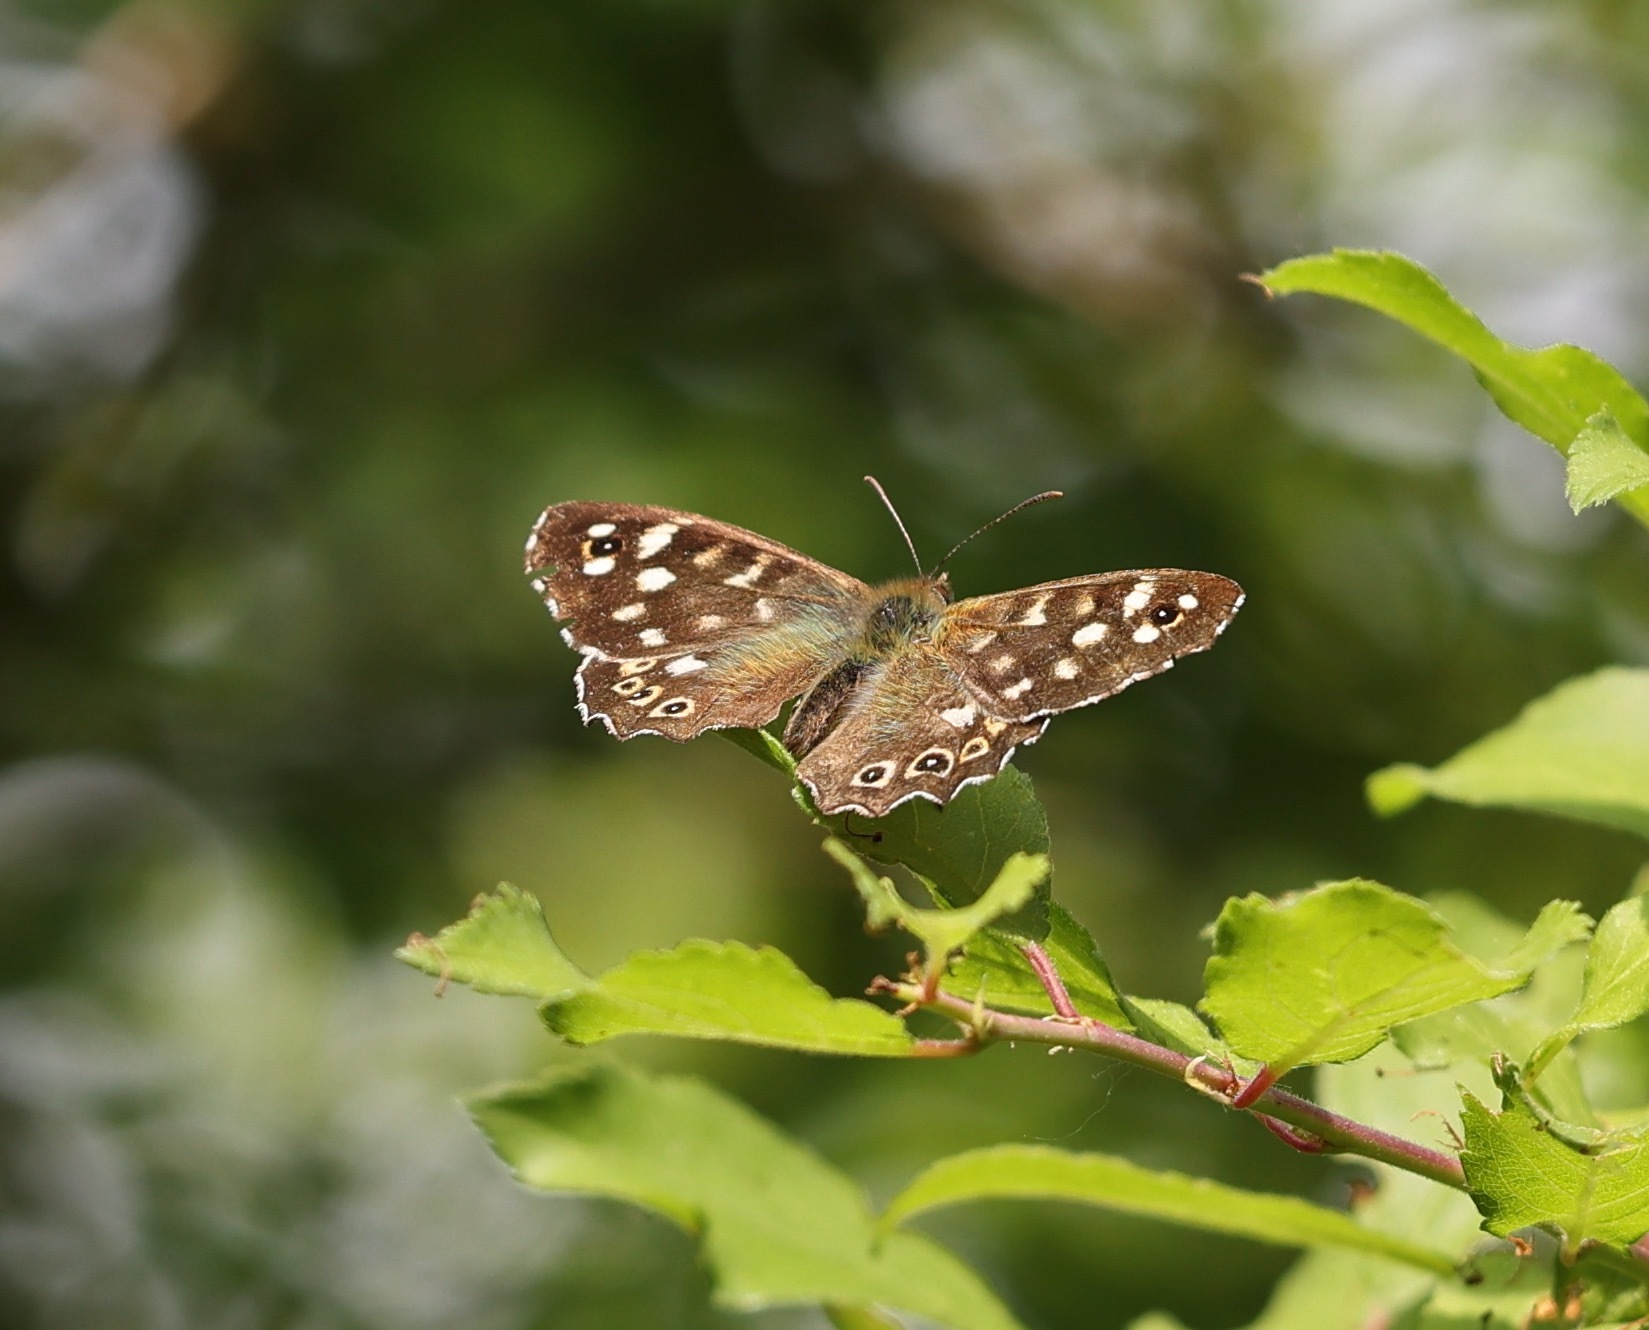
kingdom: Animalia
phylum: Arthropoda
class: Insecta
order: Lepidoptera
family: Nymphalidae
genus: Pararge
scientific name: Pararge aegeria
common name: Speckled wood
